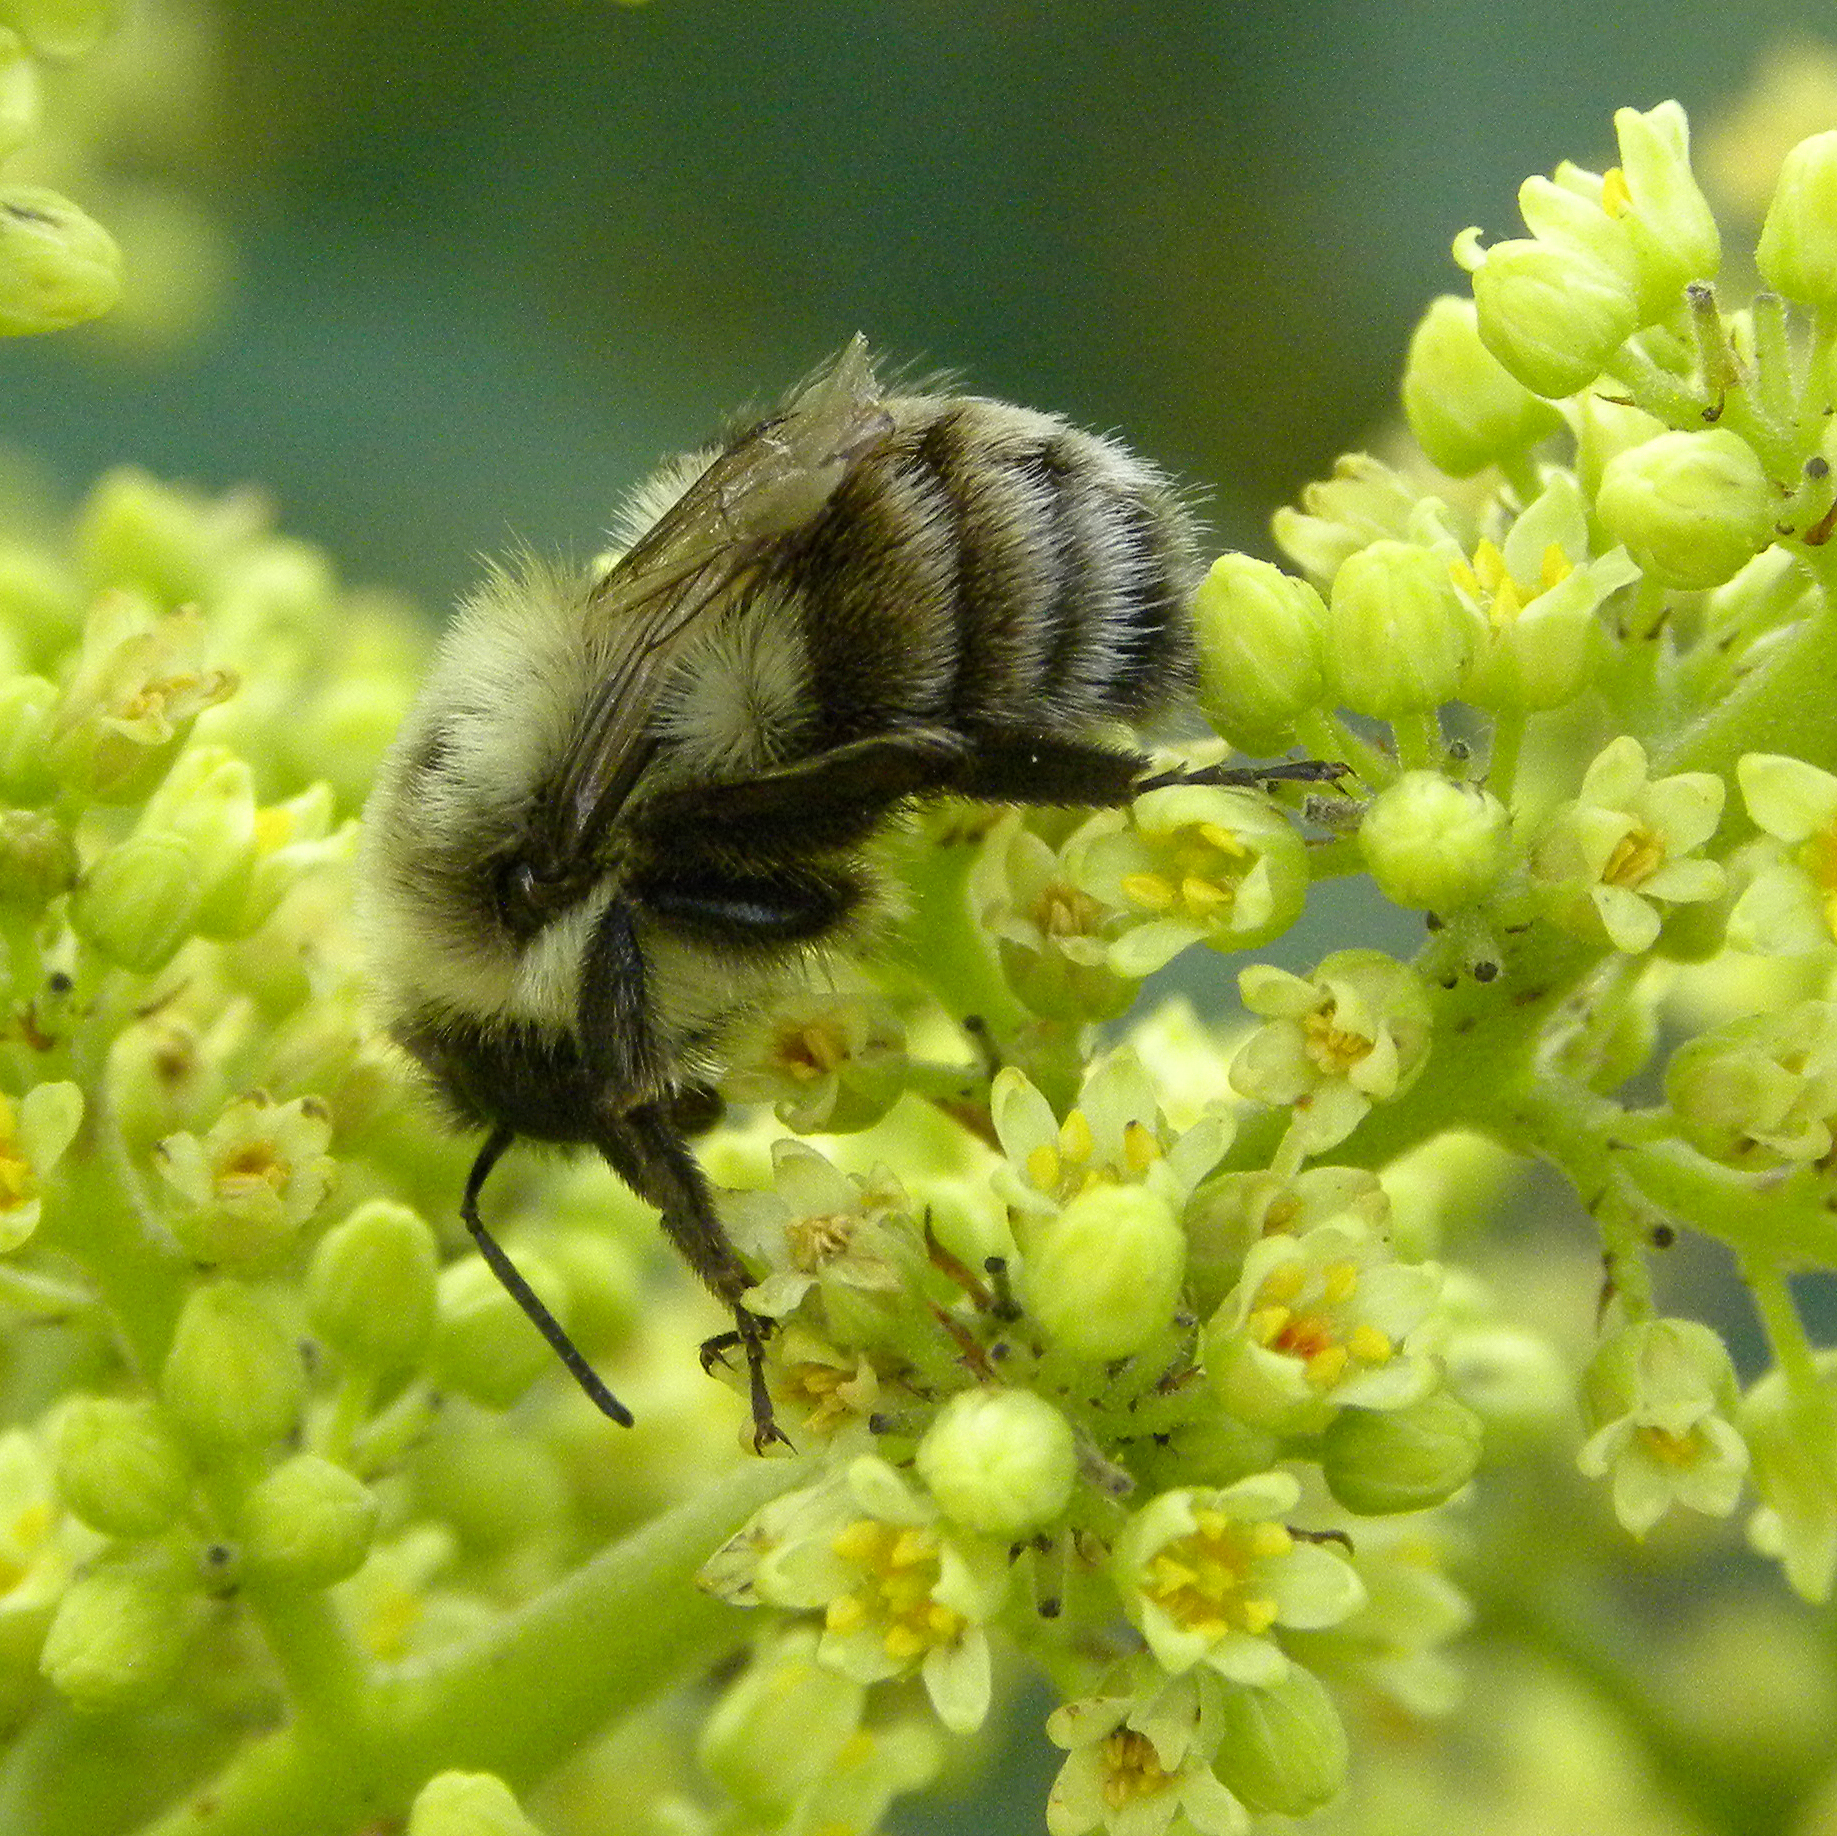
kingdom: Animalia
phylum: Arthropoda
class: Insecta
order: Hymenoptera
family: Apidae
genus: Bombus
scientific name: Bombus impatiens
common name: Common eastern bumble bee
